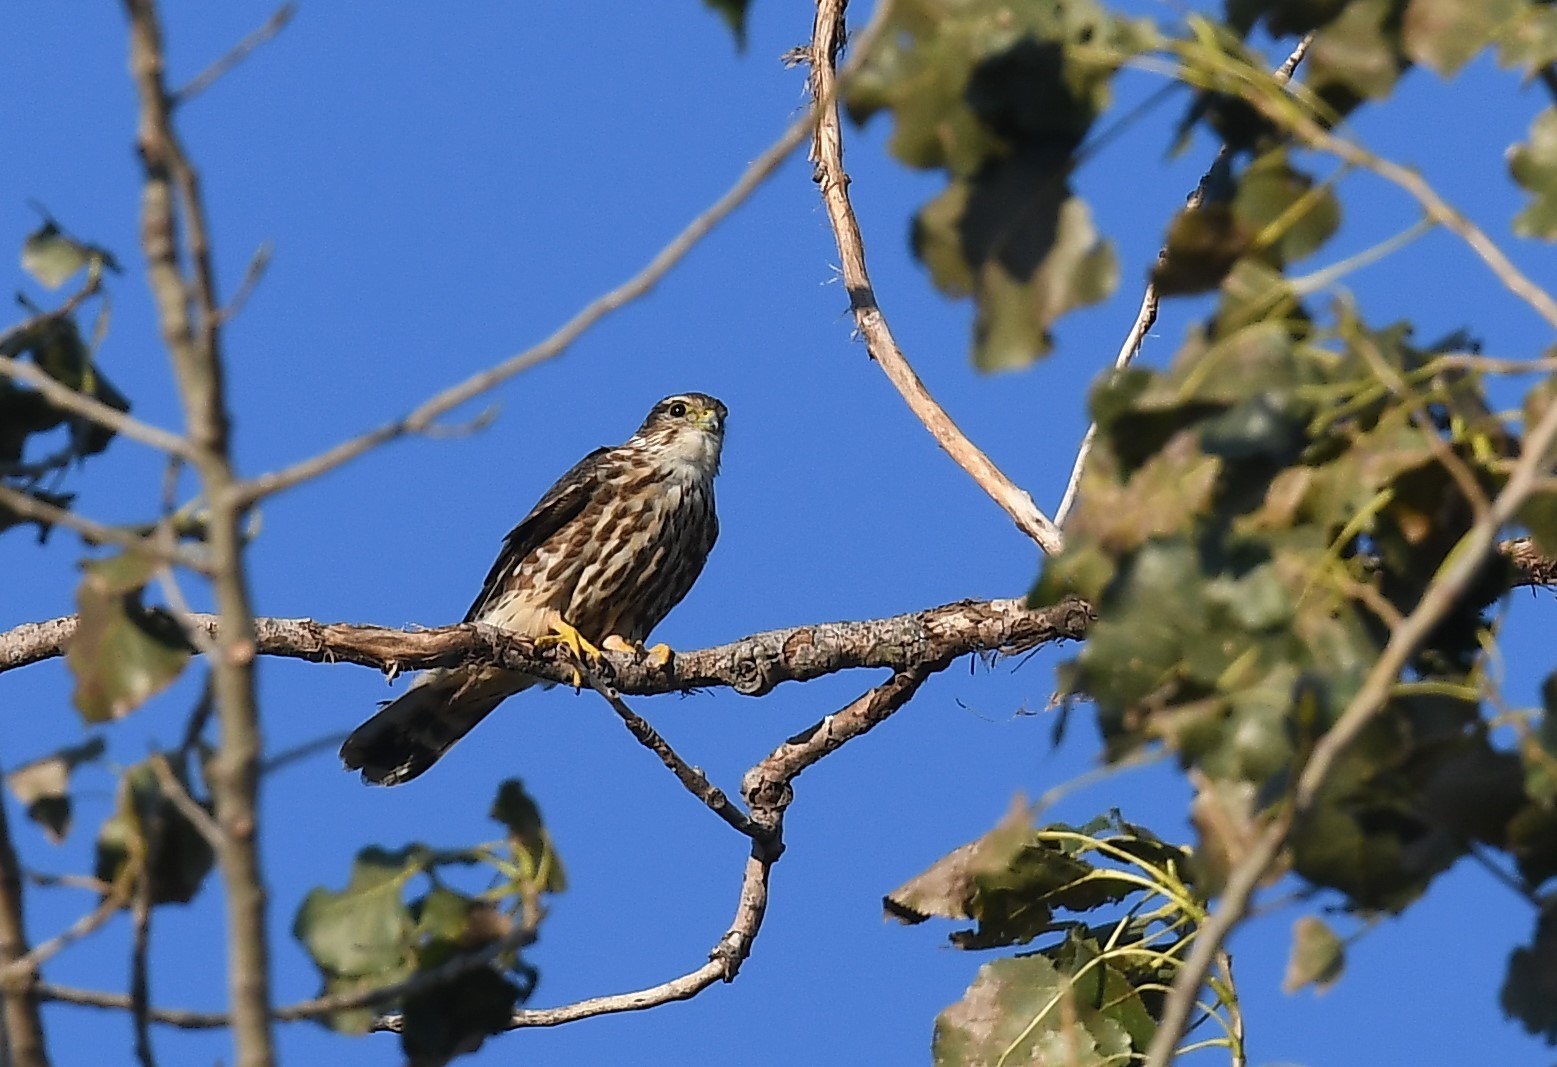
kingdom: Animalia
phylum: Chordata
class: Aves
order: Falconiformes
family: Falconidae
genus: Falco
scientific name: Falco columbarius
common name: Merlin
